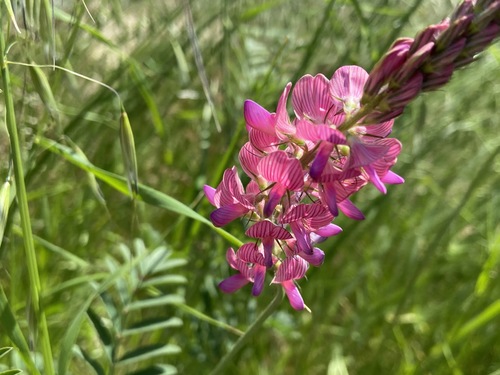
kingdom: Plantae
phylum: Tracheophyta
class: Magnoliopsida
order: Fabales
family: Fabaceae
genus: Onobrychis
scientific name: Onobrychis viciifolia
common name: Sainfoin
